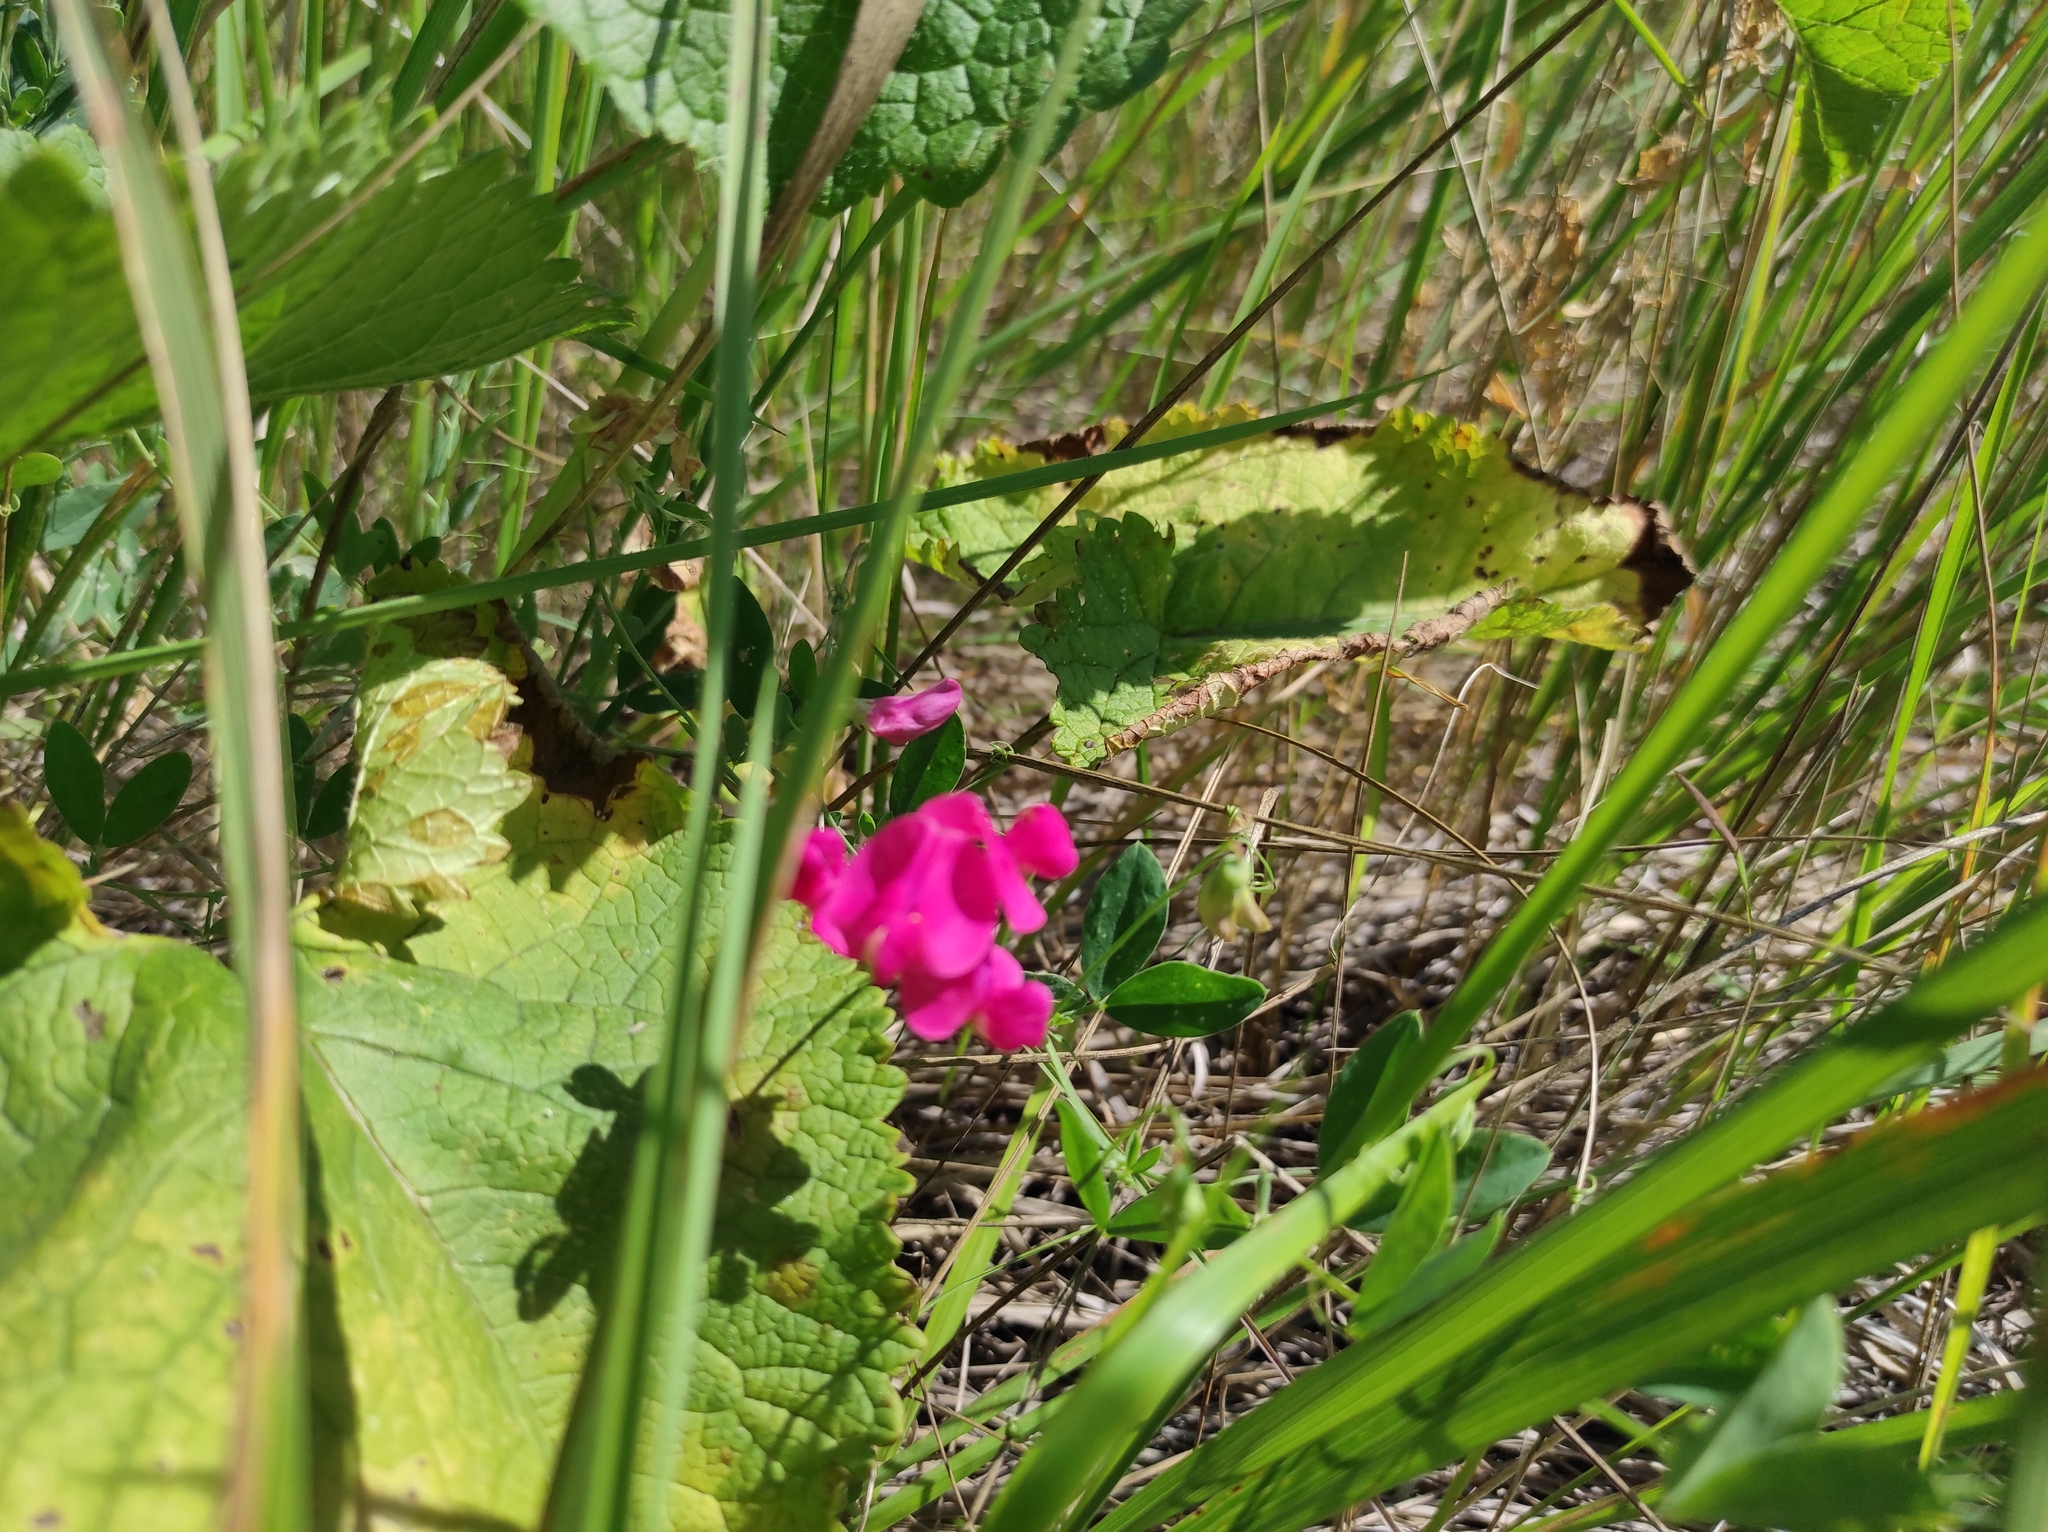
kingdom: Plantae
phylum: Tracheophyta
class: Magnoliopsida
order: Fabales
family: Fabaceae
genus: Lathyrus
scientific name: Lathyrus tuberosus
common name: Tuberous pea
